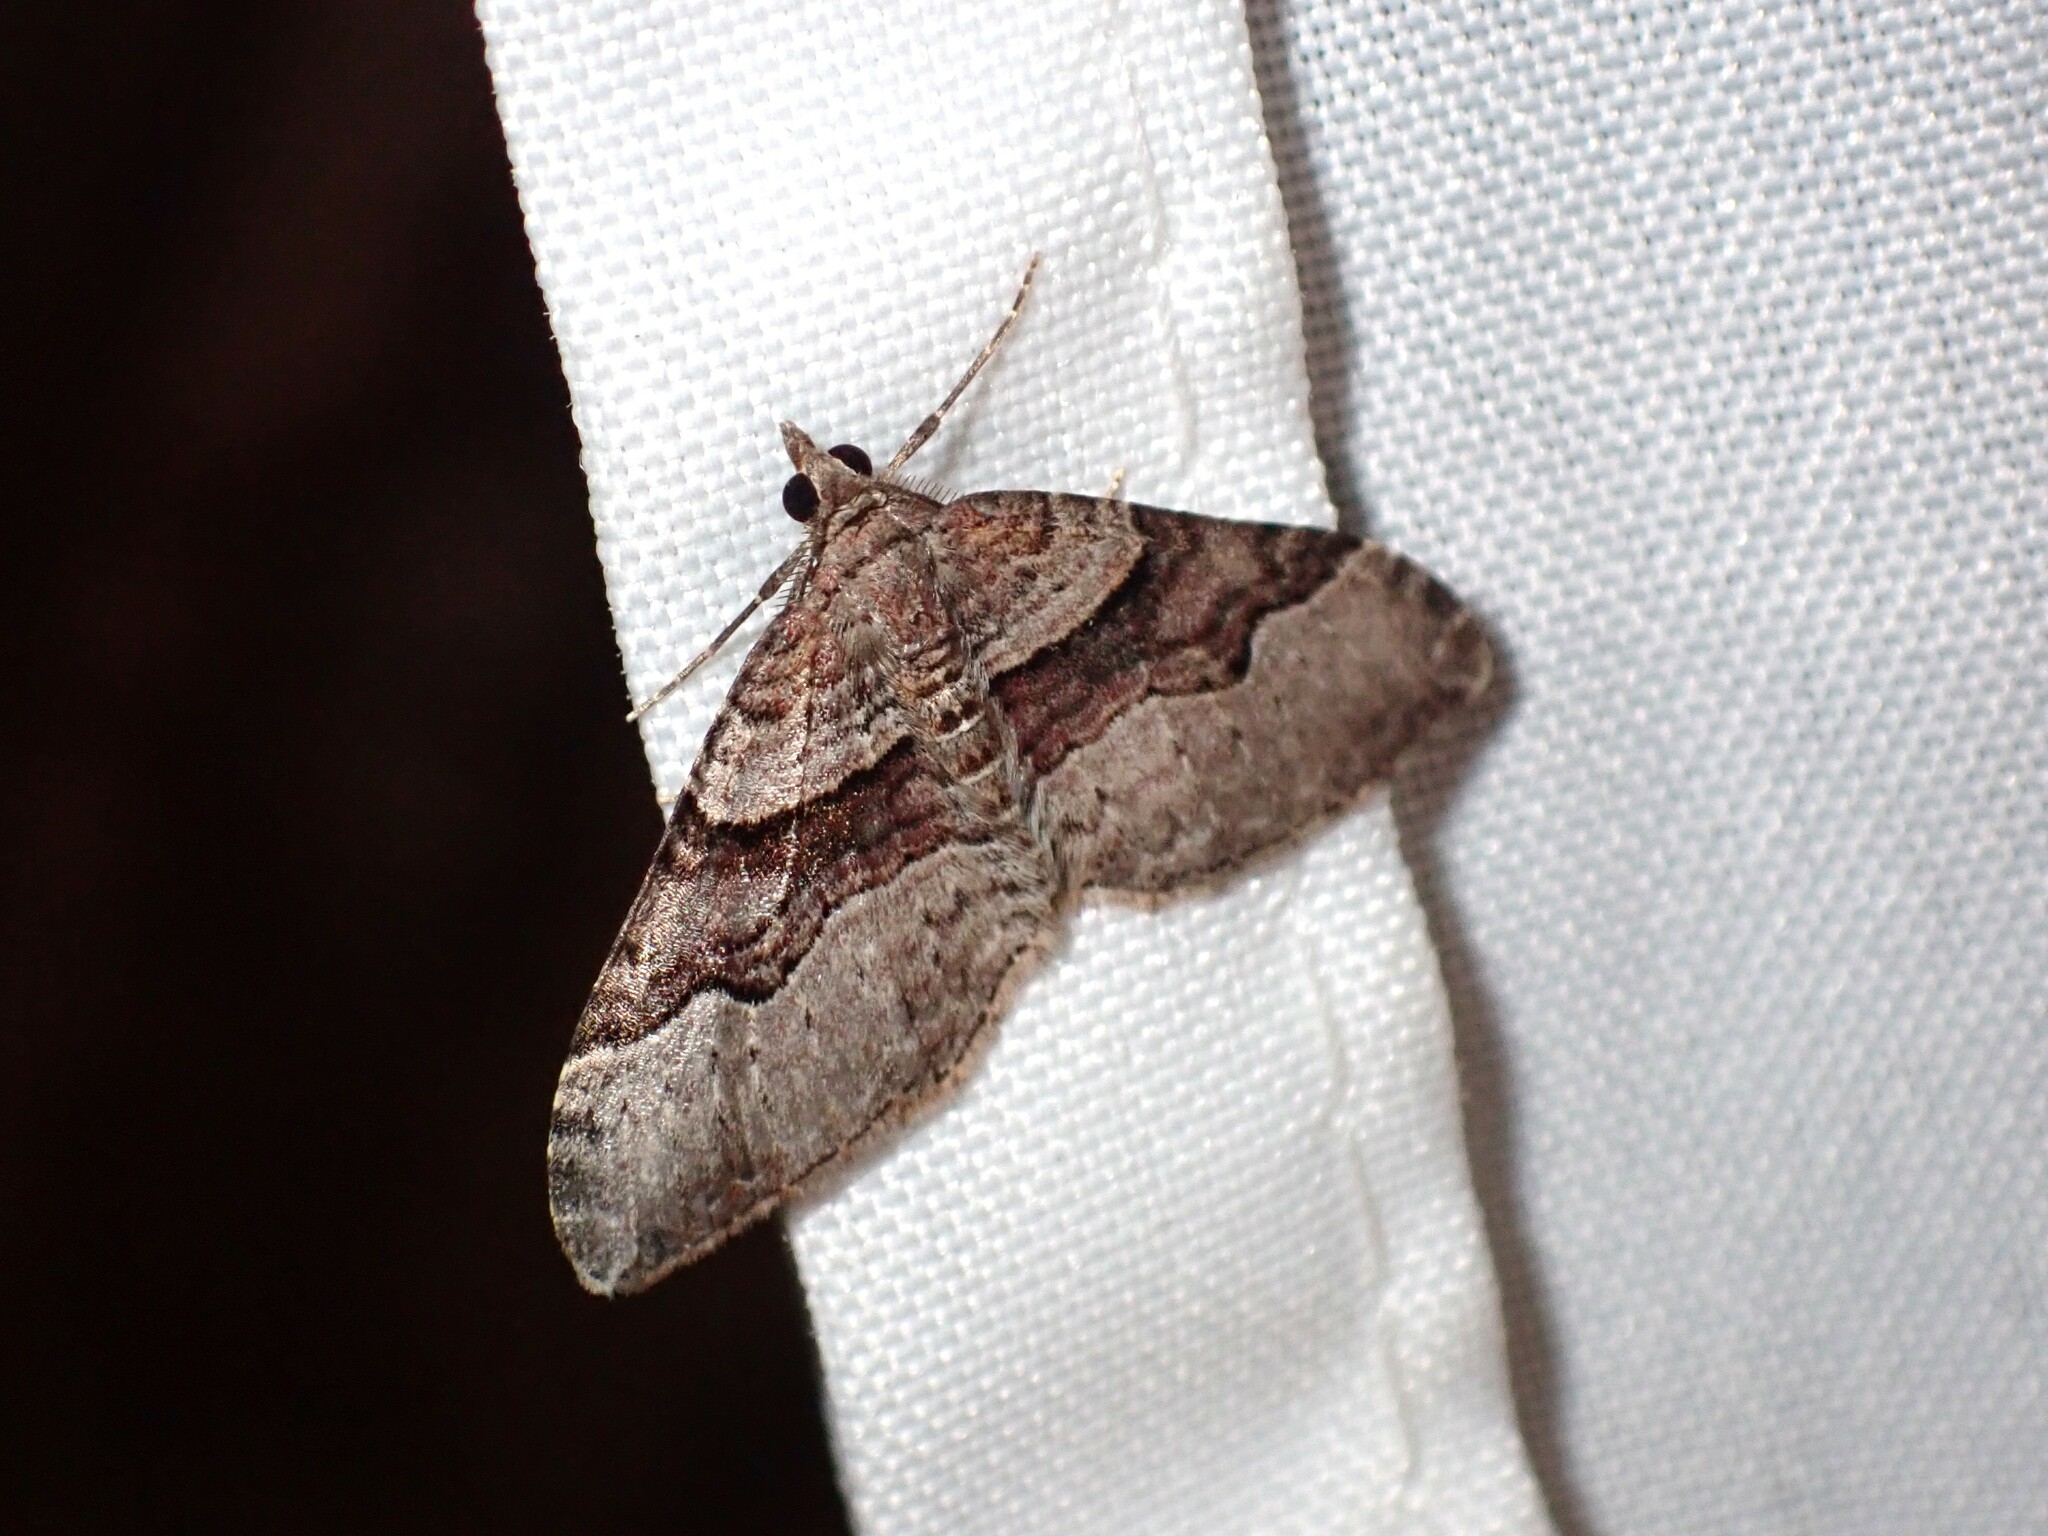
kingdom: Animalia
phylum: Arthropoda
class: Insecta
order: Lepidoptera
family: Geometridae
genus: Xanthorhoe
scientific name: Xanthorhoe defensaria
